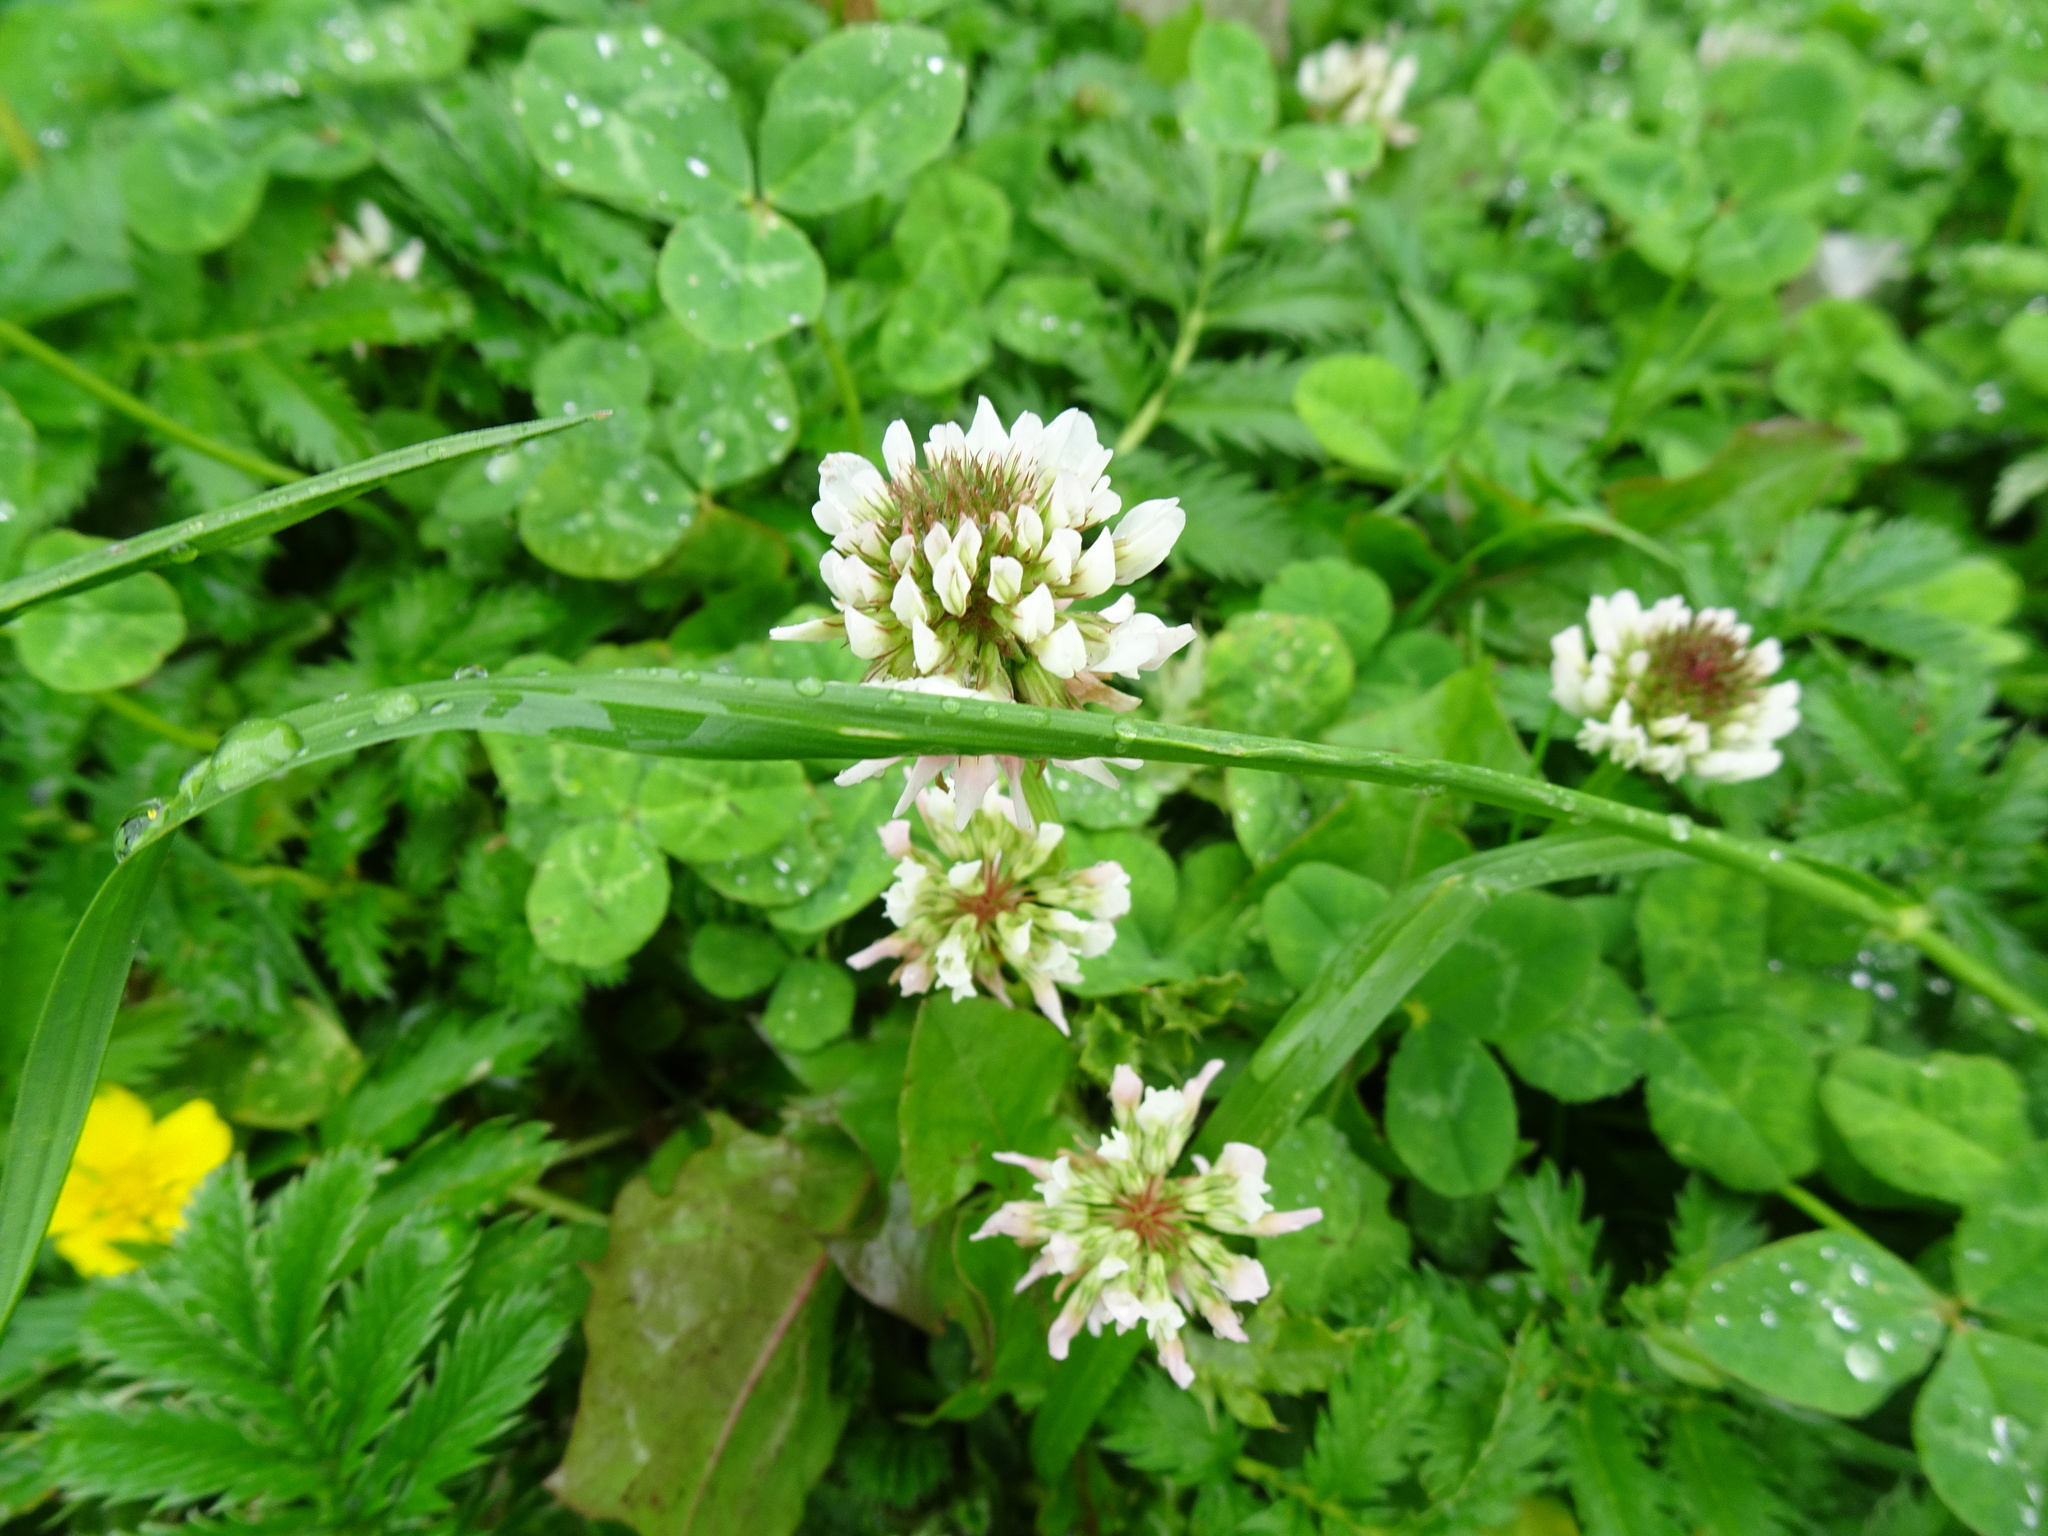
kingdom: Plantae
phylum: Tracheophyta
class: Magnoliopsida
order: Fabales
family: Fabaceae
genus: Trifolium
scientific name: Trifolium repens
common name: White clover
